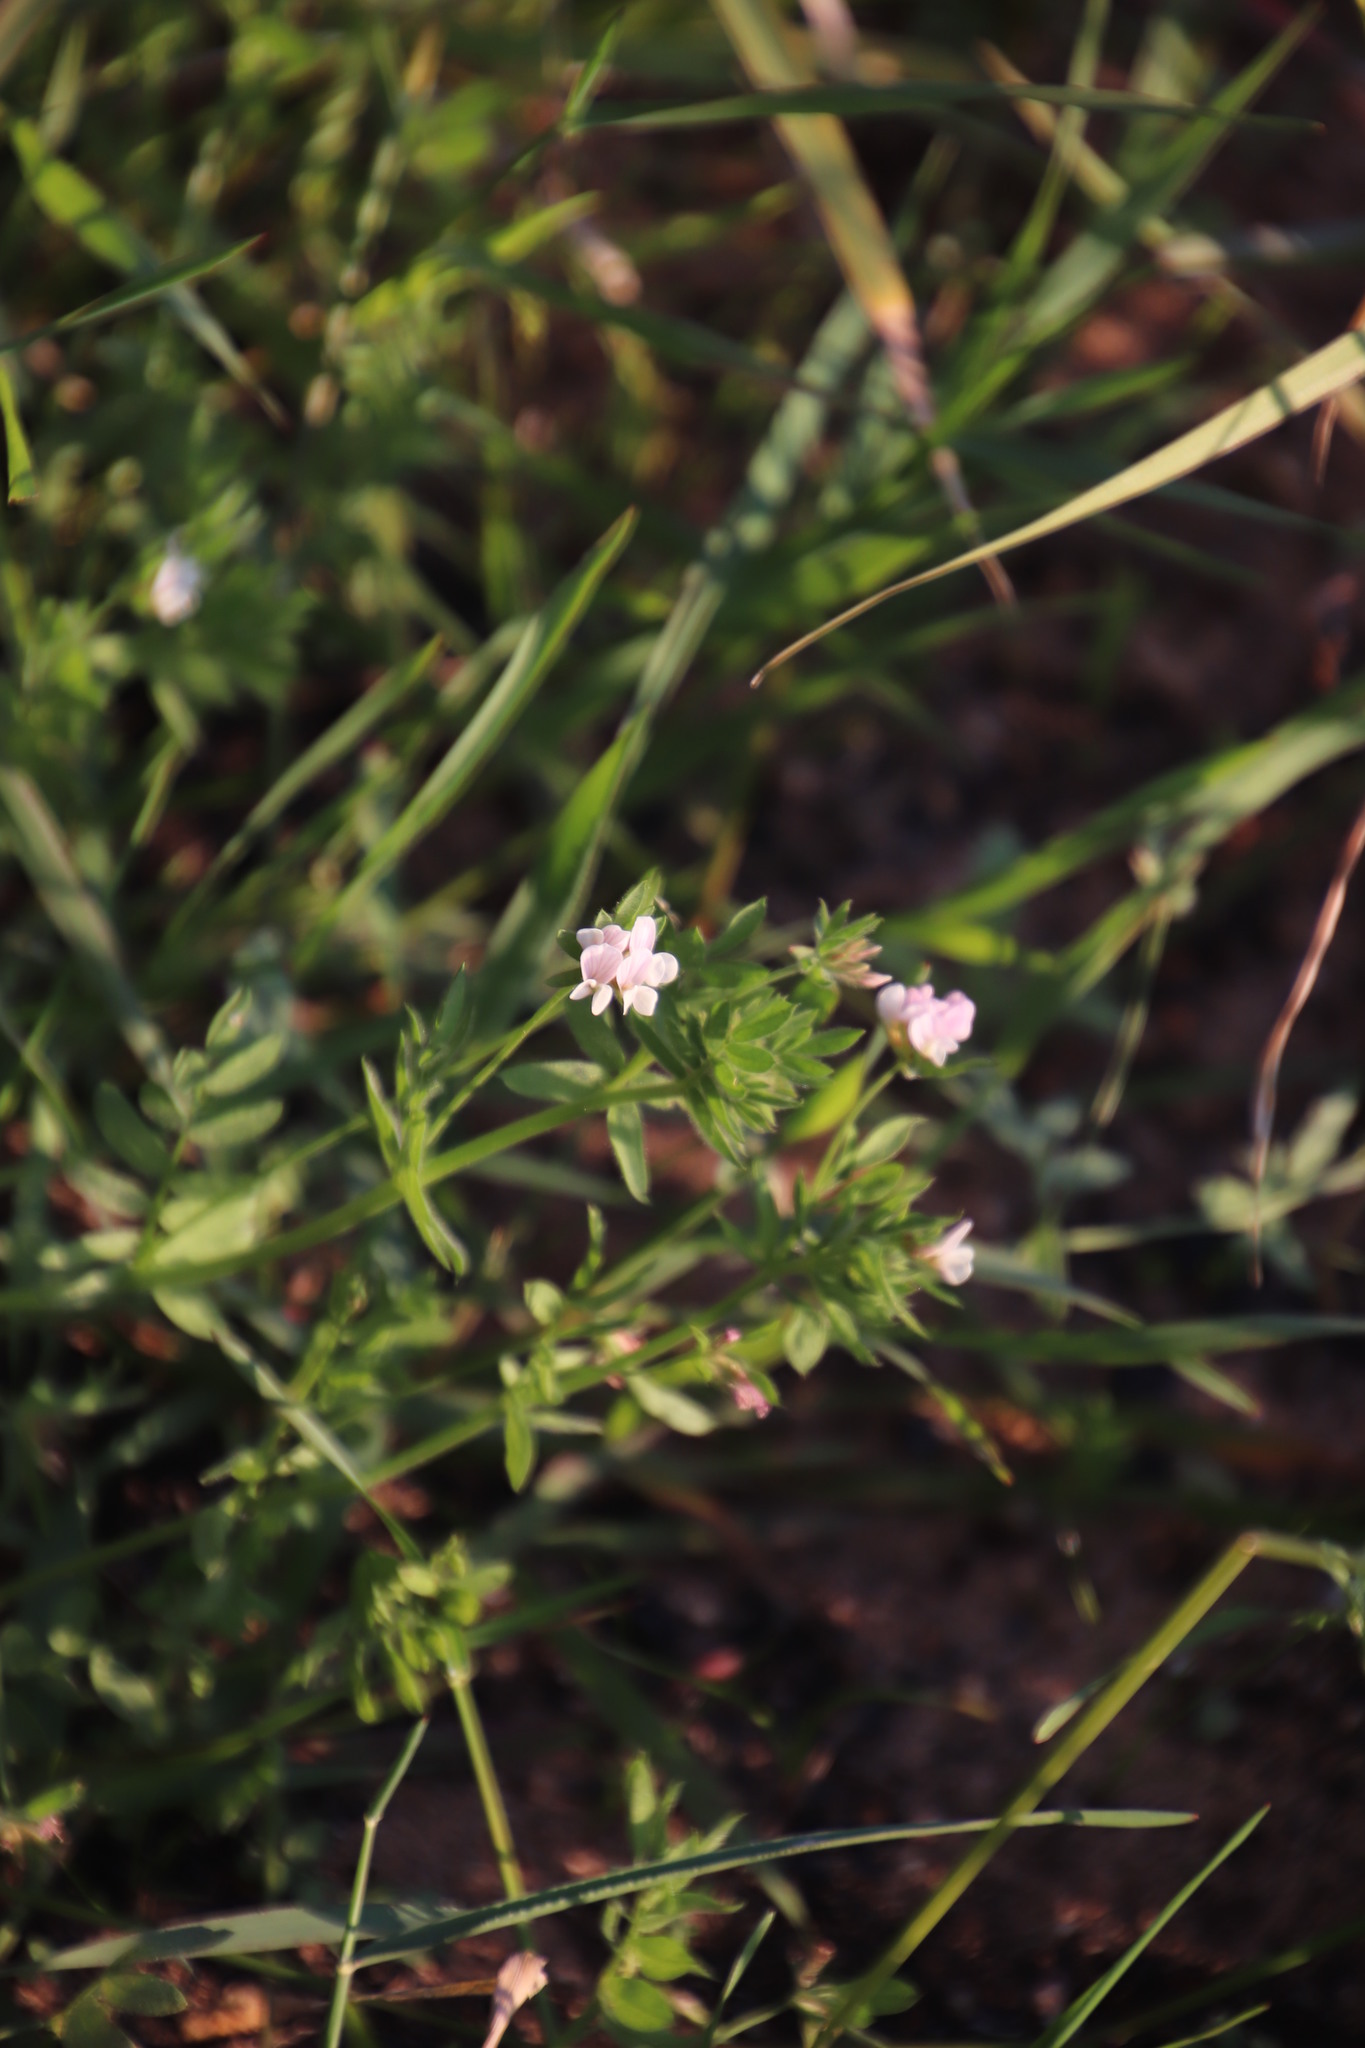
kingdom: Plantae
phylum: Tracheophyta
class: Magnoliopsida
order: Fabales
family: Fabaceae
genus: Ornithopus
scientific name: Ornithopus sativus
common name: Serradella
